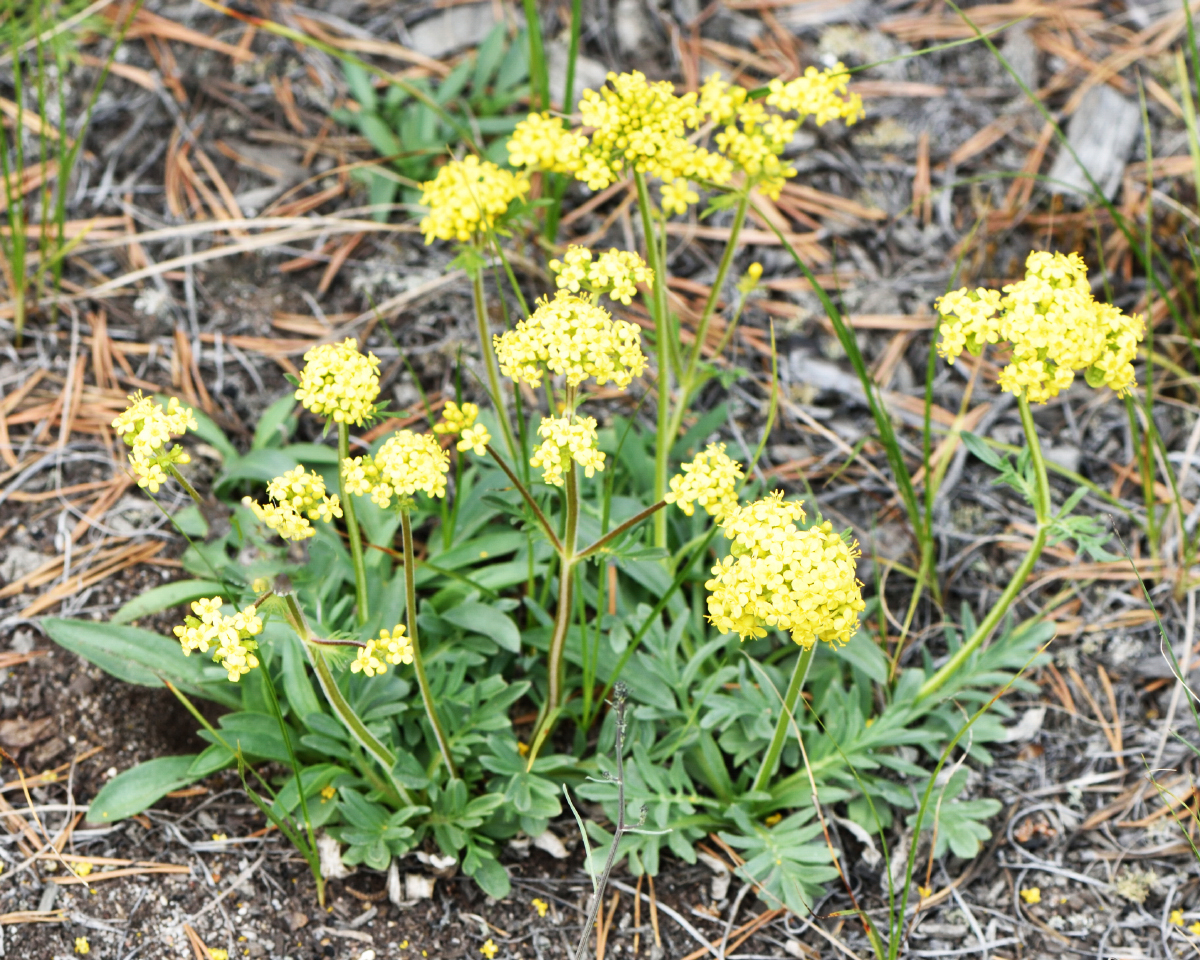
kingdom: Plantae
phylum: Tracheophyta
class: Magnoliopsida
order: Dipsacales
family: Caprifoliaceae
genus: Patrinia
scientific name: Patrinia rupestris
